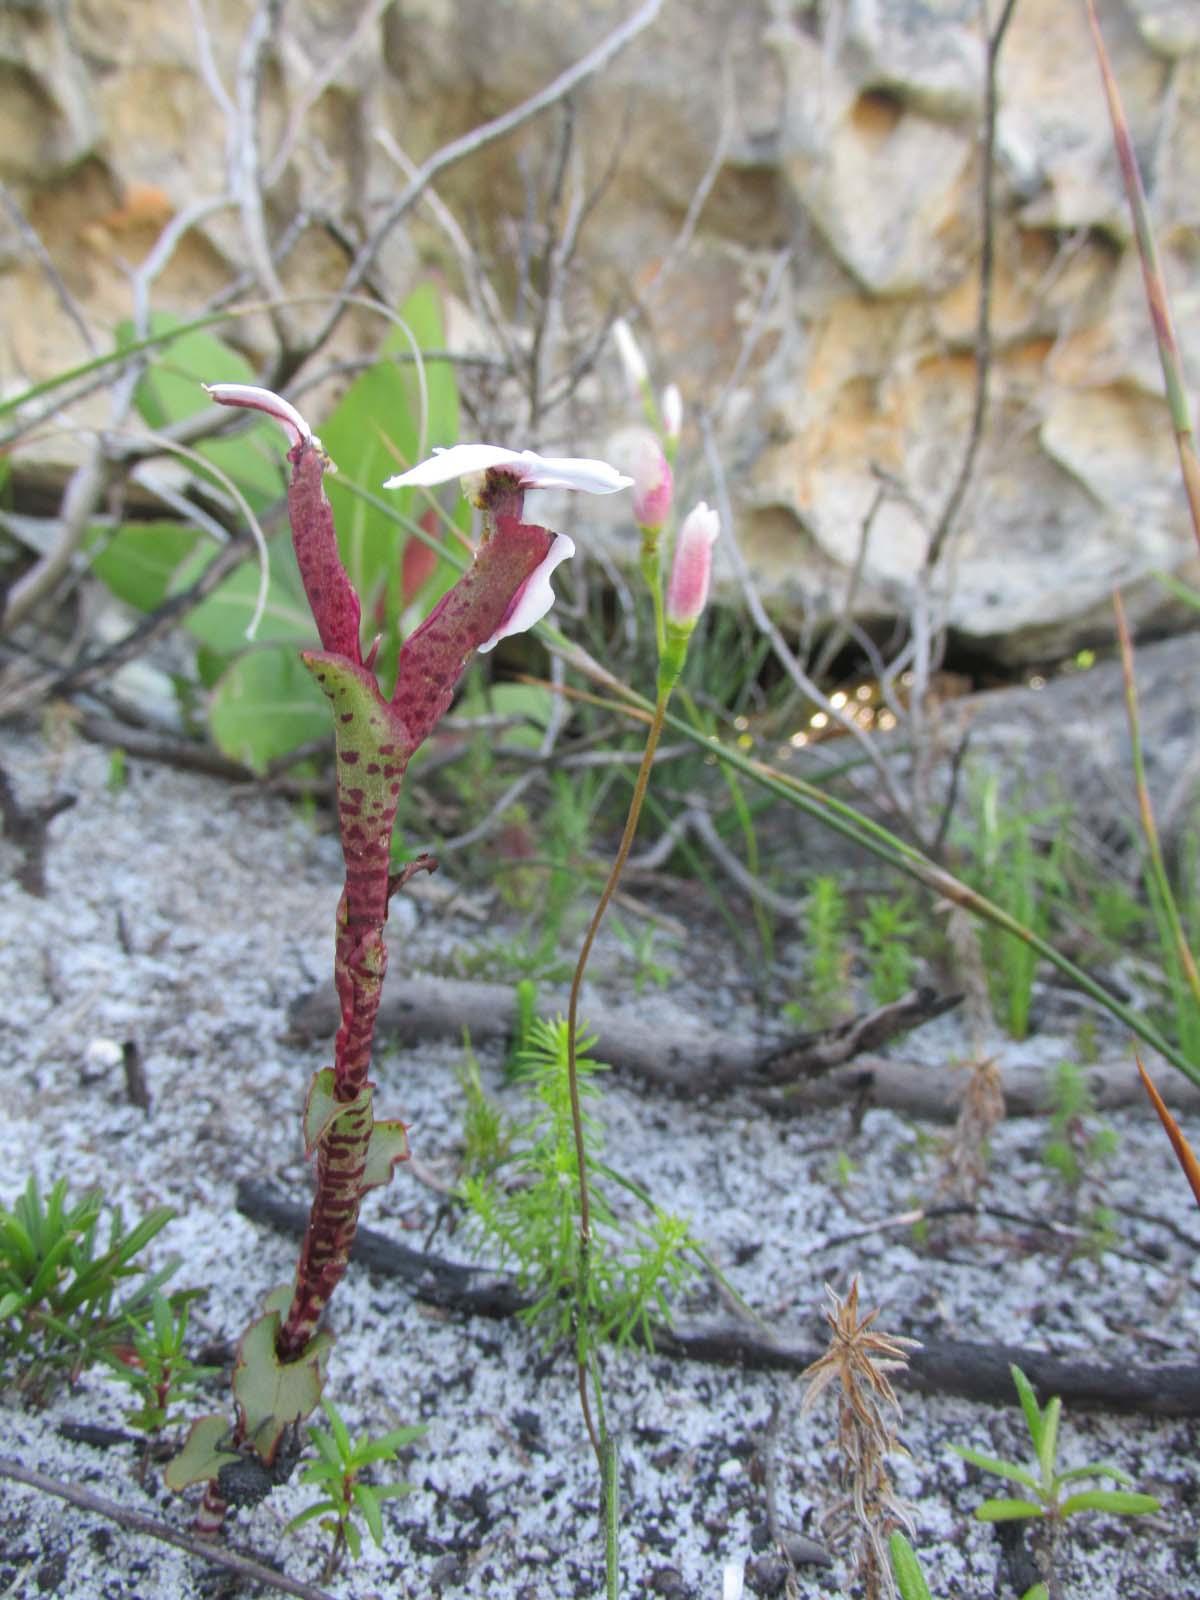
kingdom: Plantae
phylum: Tracheophyta
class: Liliopsida
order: Asparagales
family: Orchidaceae
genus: Disa
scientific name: Disa fasciata
